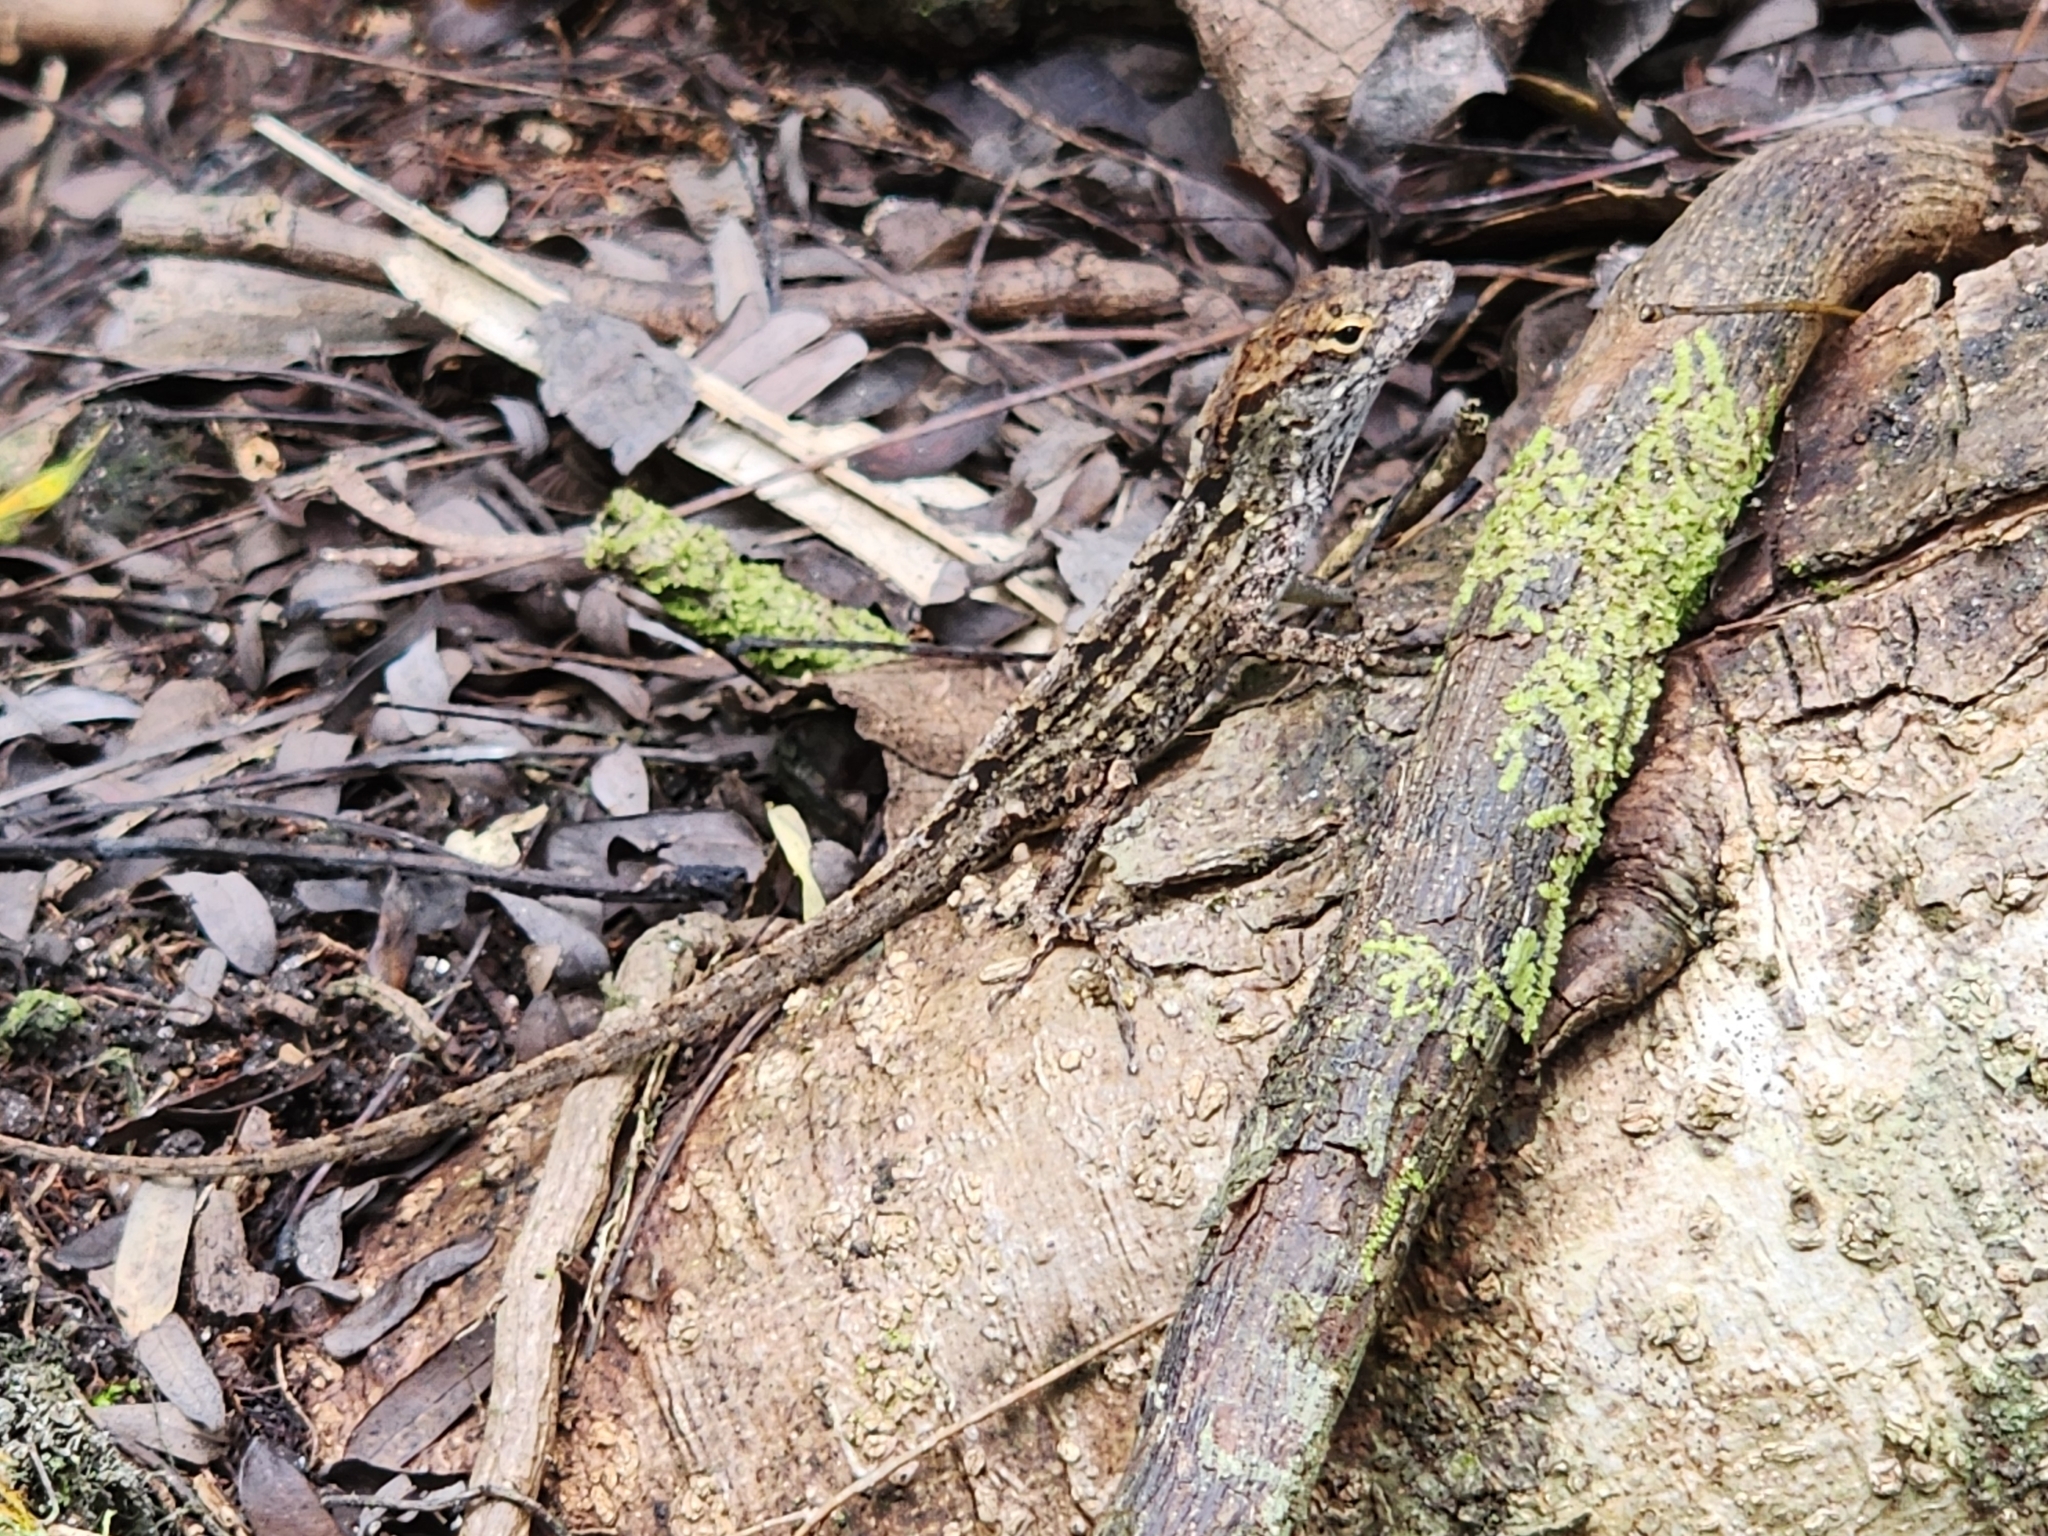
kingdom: Animalia
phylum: Chordata
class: Squamata
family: Dactyloidae
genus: Anolis
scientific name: Anolis sagrei
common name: Brown anole
